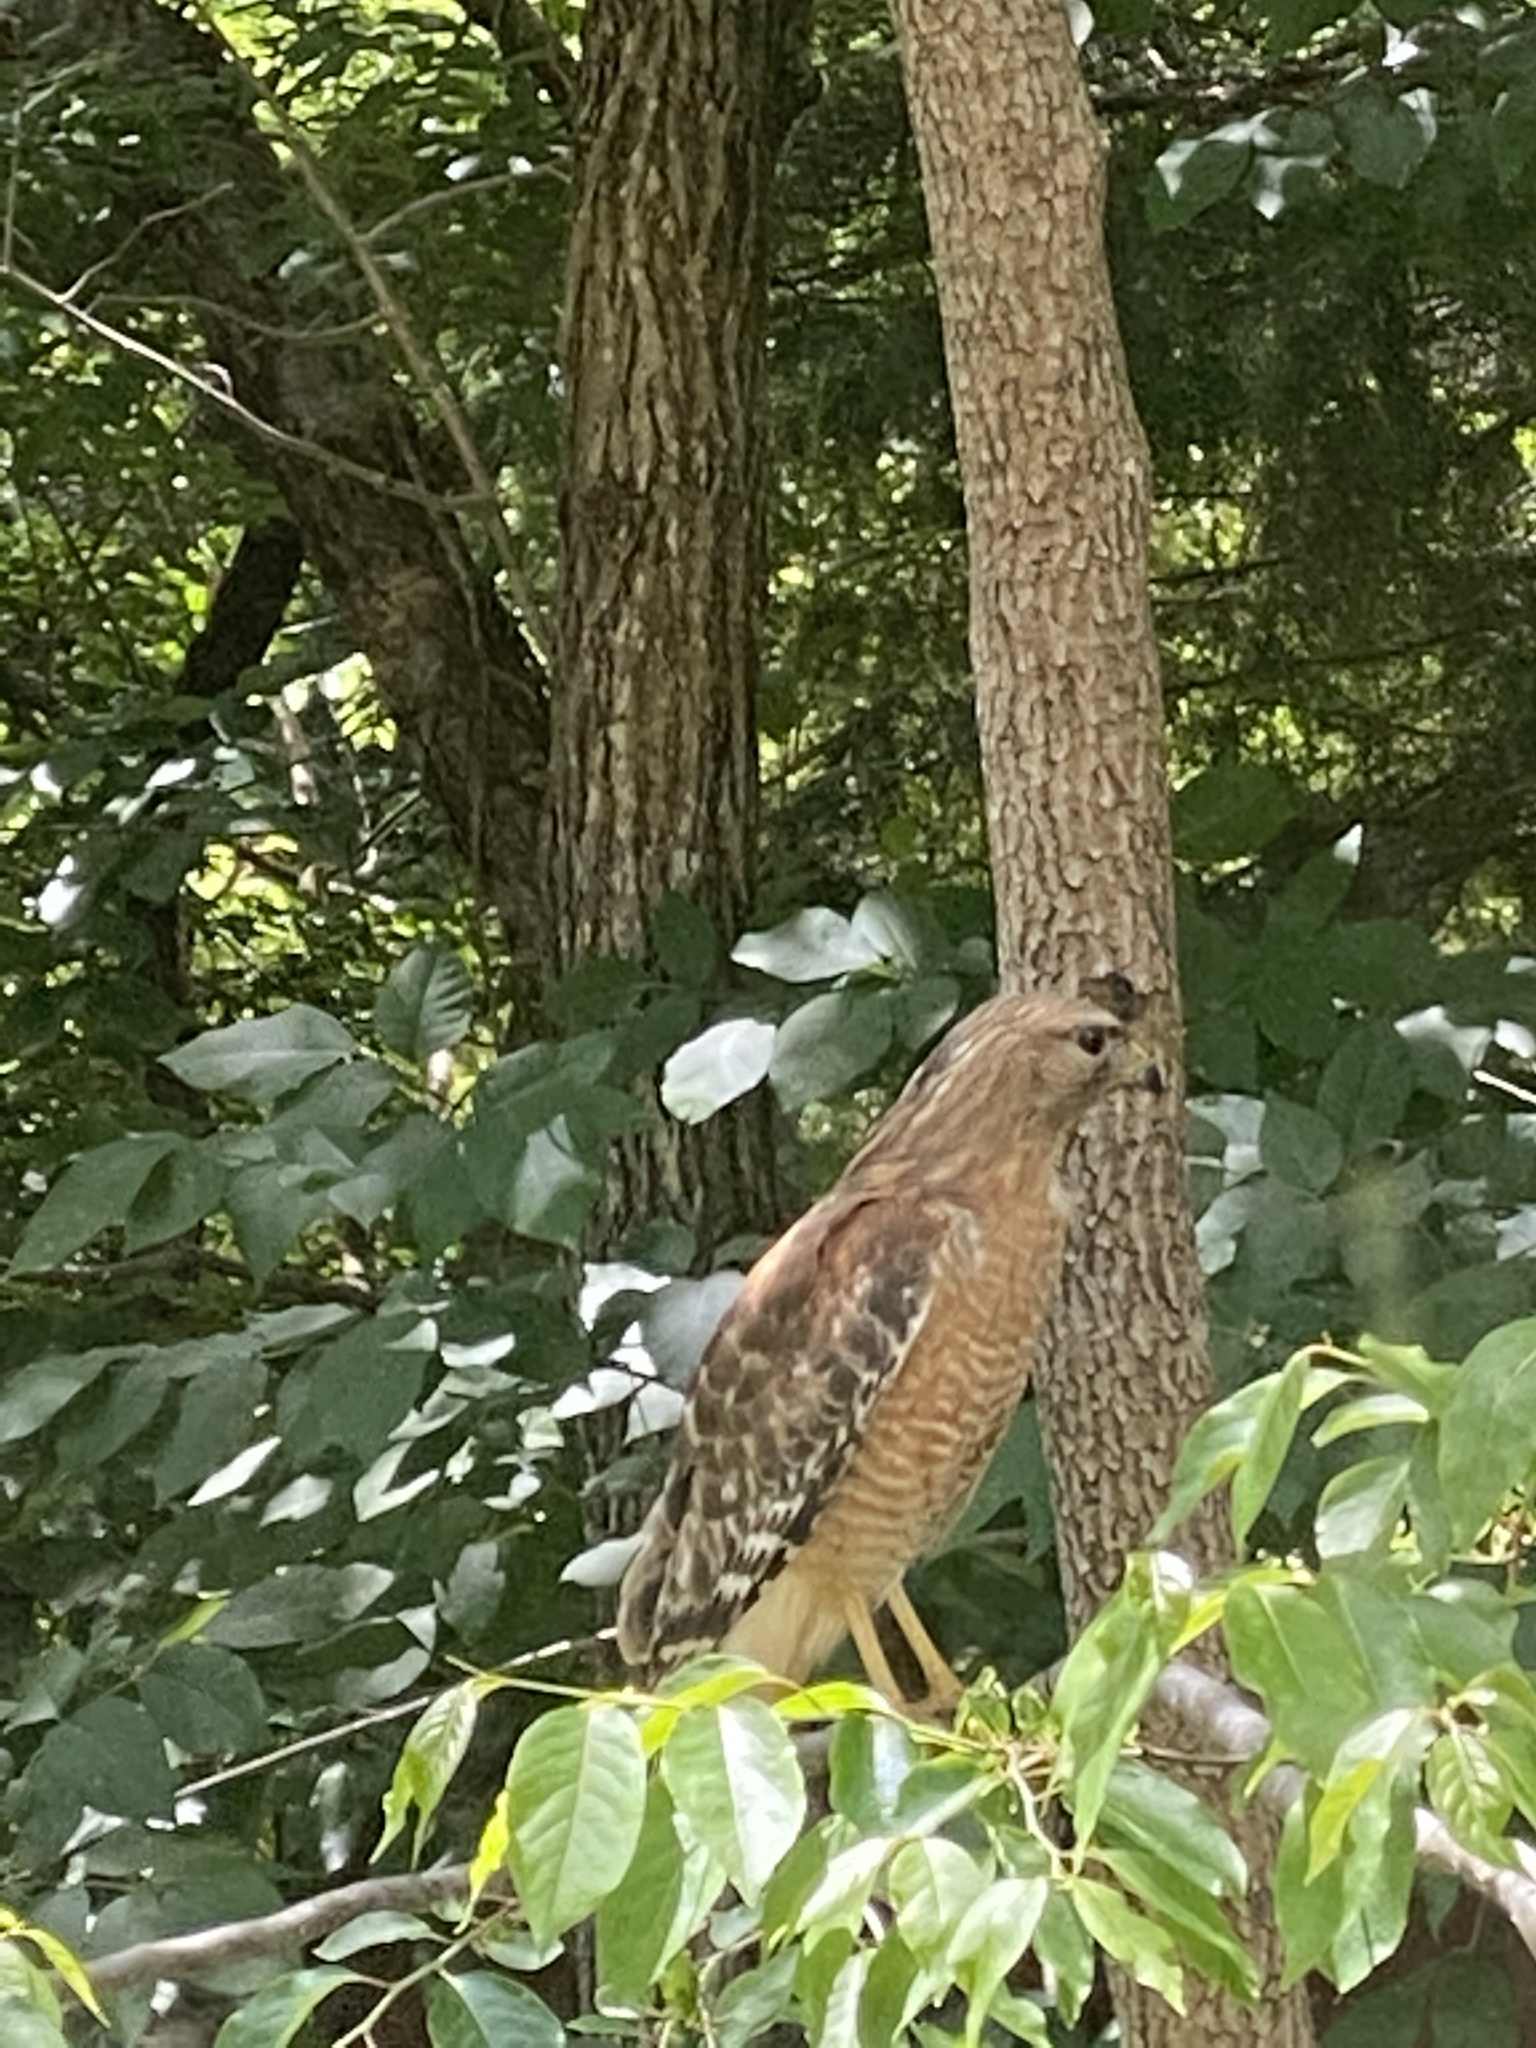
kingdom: Animalia
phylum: Chordata
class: Aves
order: Accipitriformes
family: Accipitridae
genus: Buteo
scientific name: Buteo lineatus
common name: Red-shouldered hawk
